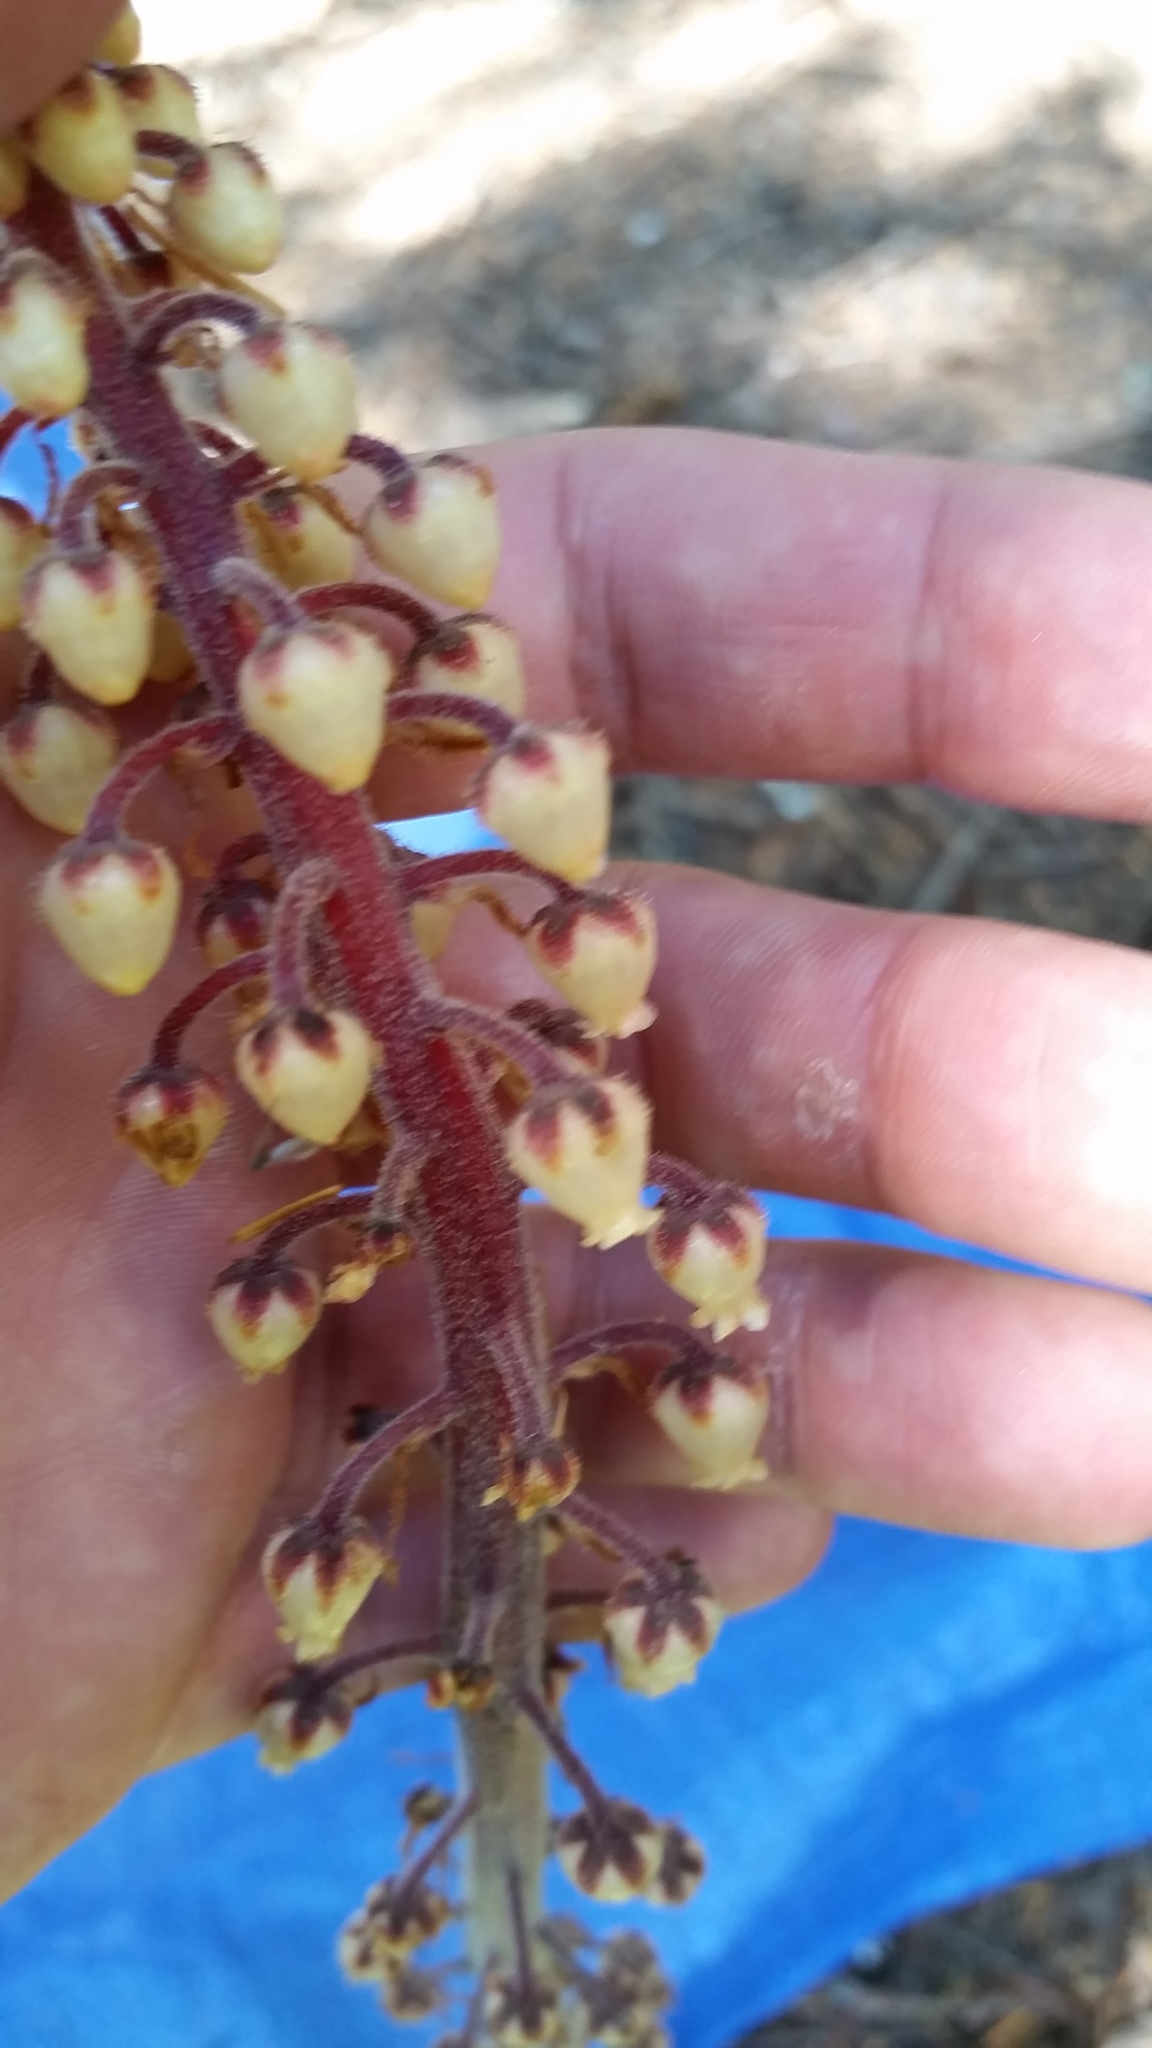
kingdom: Plantae
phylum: Tracheophyta
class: Magnoliopsida
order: Ericales
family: Ericaceae
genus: Pterospora
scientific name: Pterospora andromedea
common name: Giant bird's-nest
